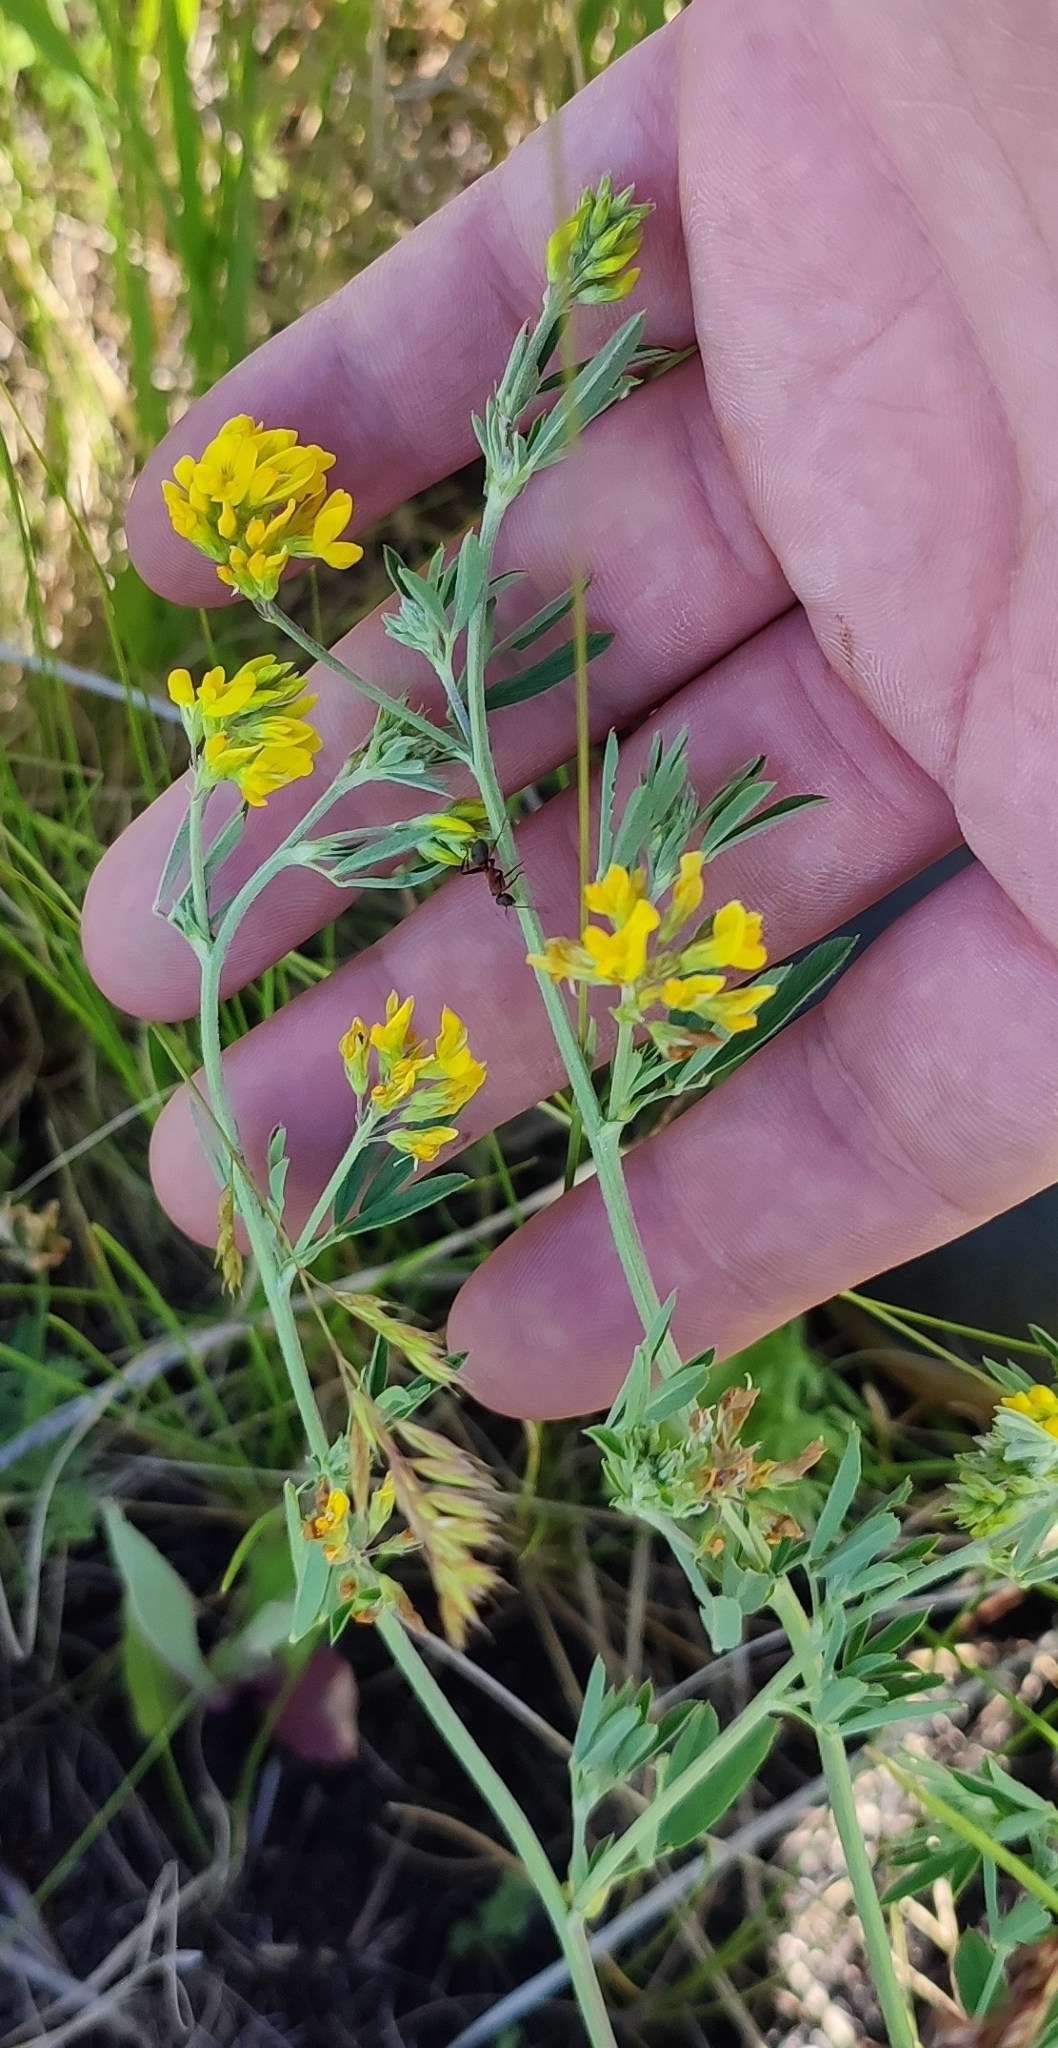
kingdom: Plantae
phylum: Tracheophyta
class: Magnoliopsida
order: Fabales
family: Fabaceae
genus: Medicago
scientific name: Medicago falcata
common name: Sickle medick
